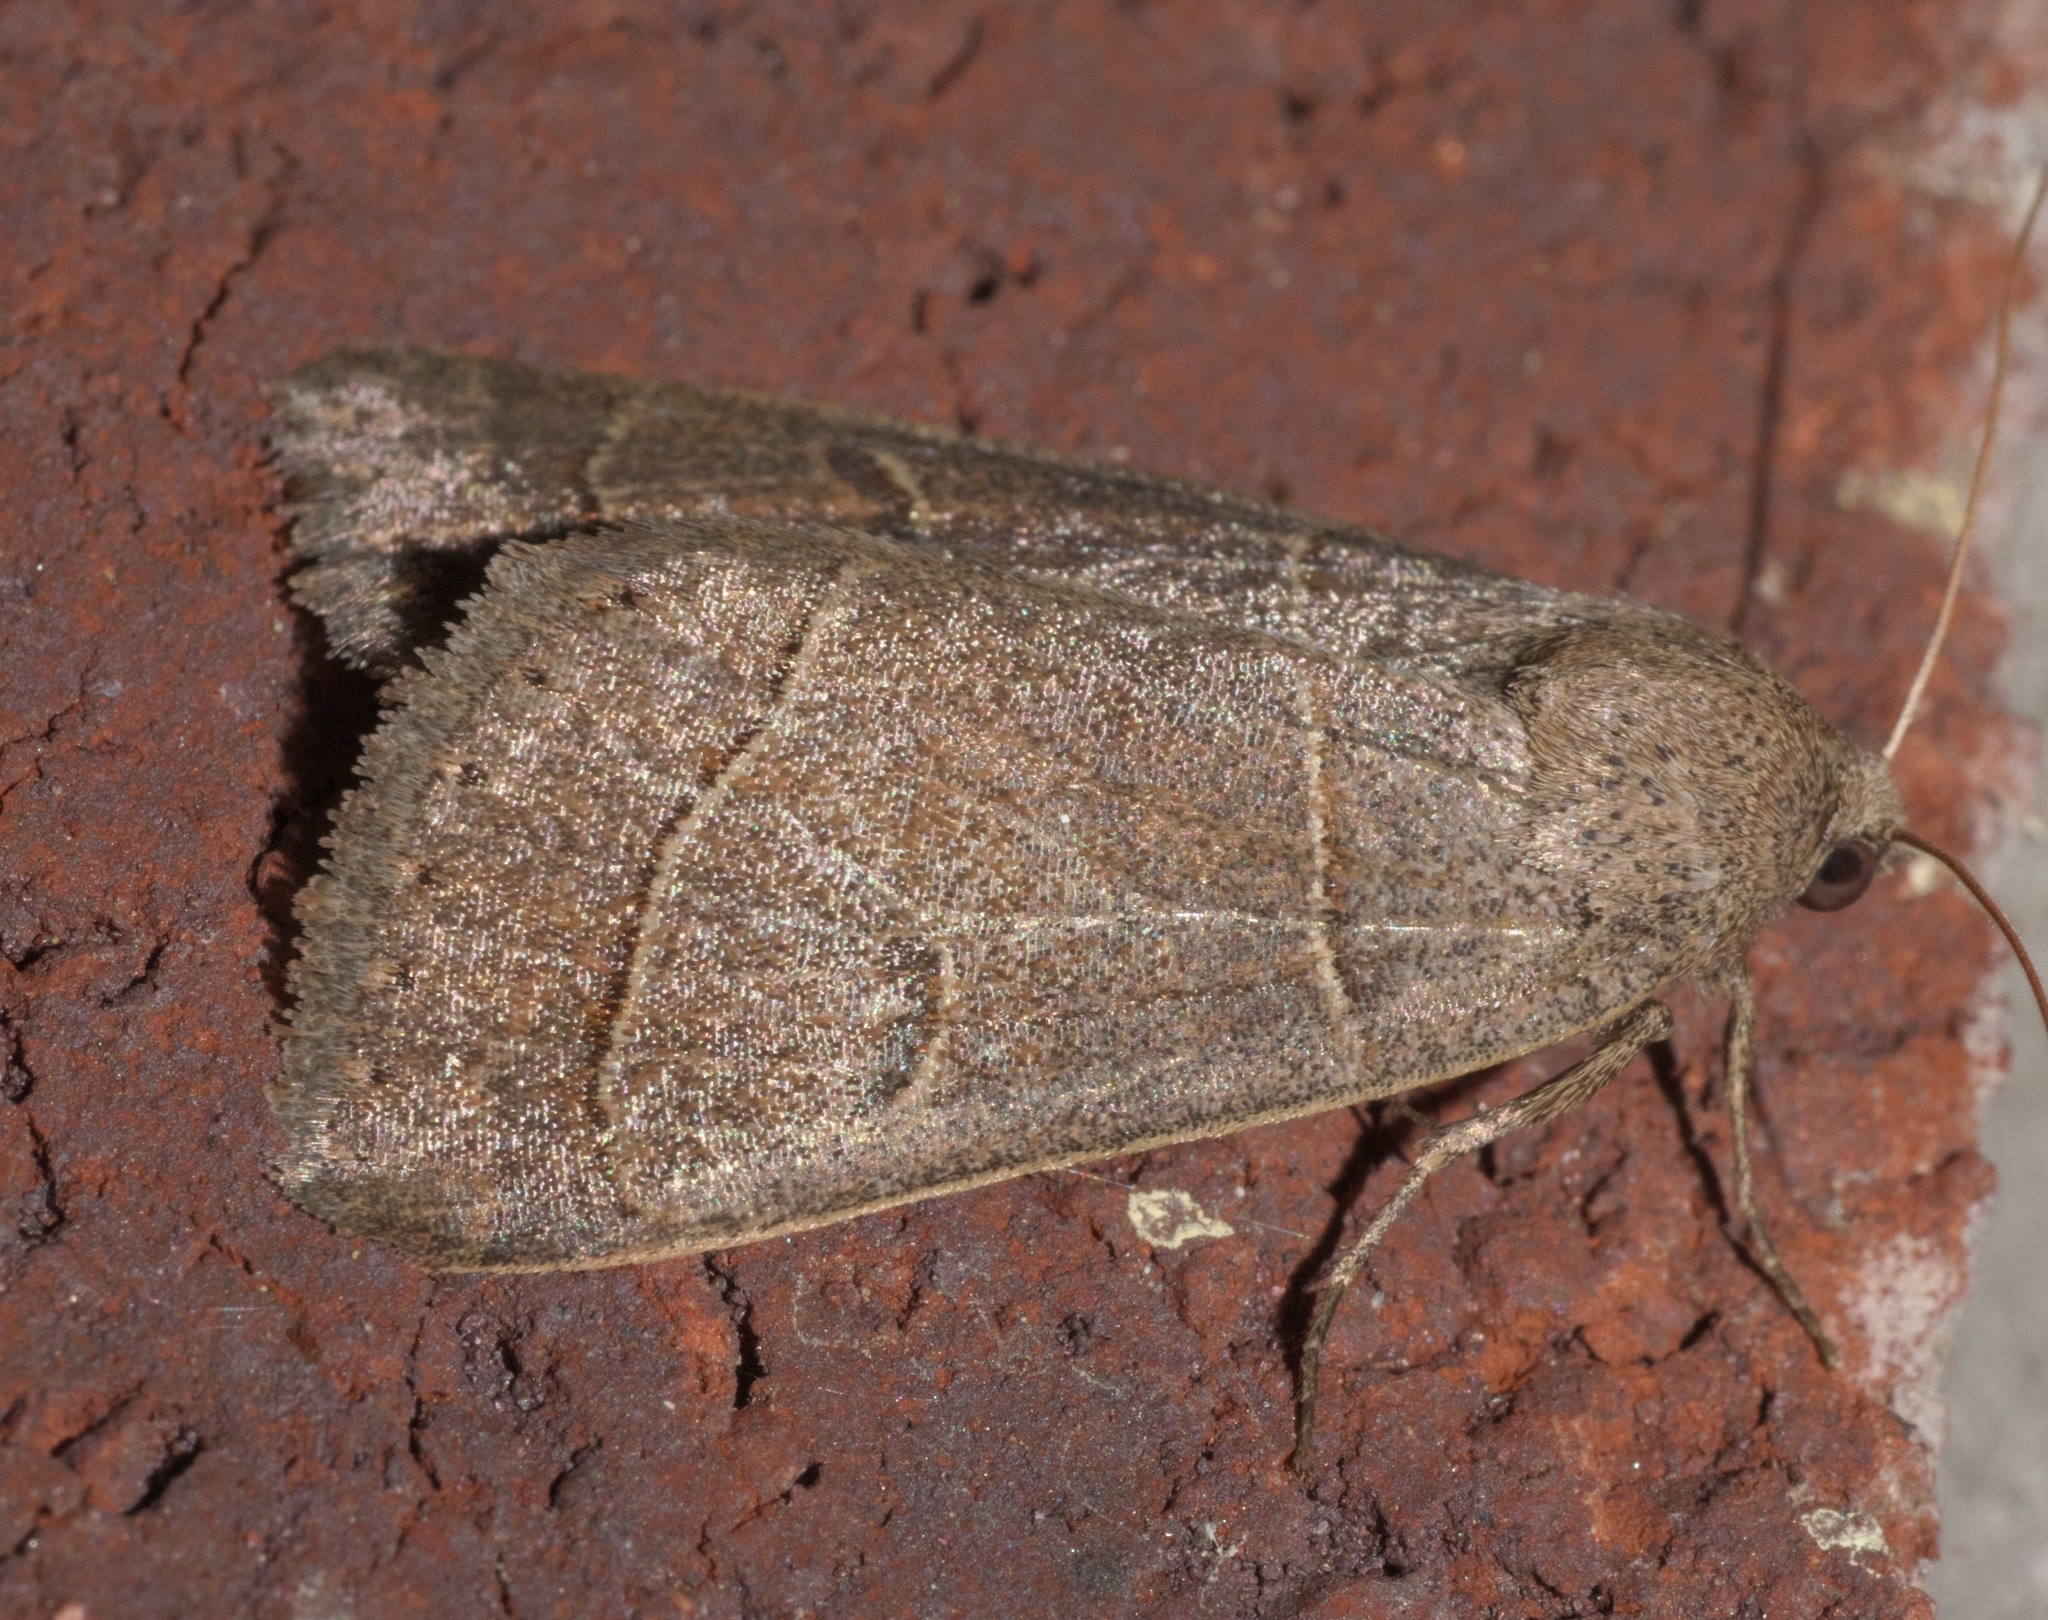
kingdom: Animalia
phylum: Arthropoda
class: Insecta
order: Lepidoptera
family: Erebidae
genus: Phoberia
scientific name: Phoberia atomaris
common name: Common oak moth
